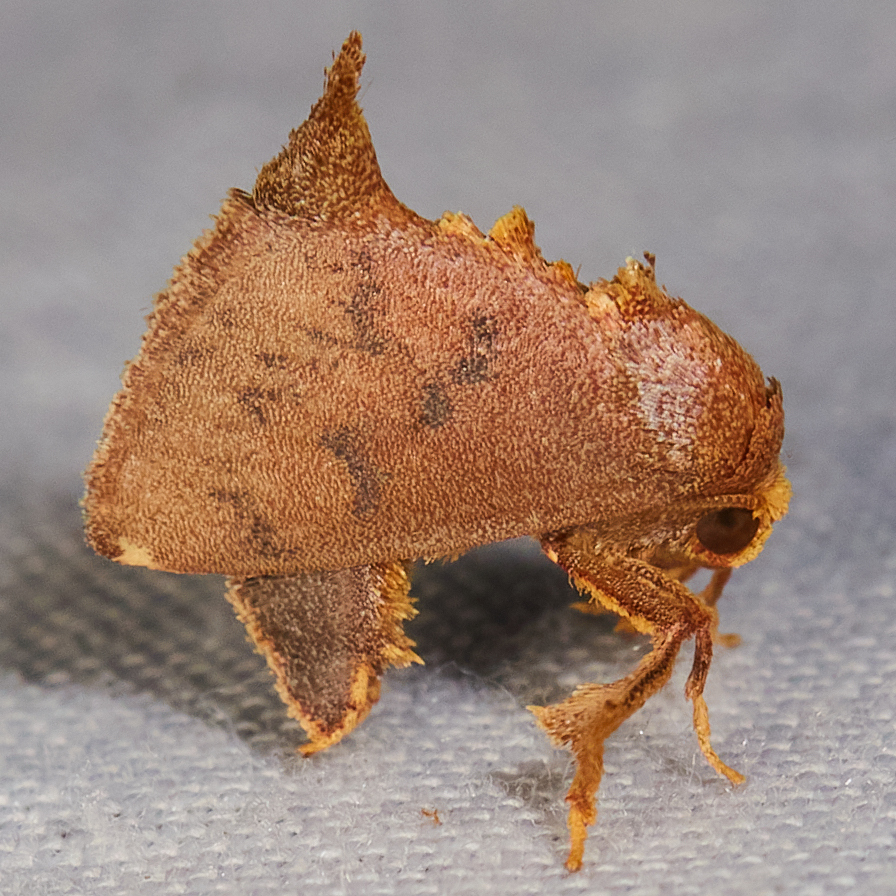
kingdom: Animalia
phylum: Arthropoda
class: Insecta
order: Lepidoptera
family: Limacodidae
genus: Tanadema
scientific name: Tanadema neutra
